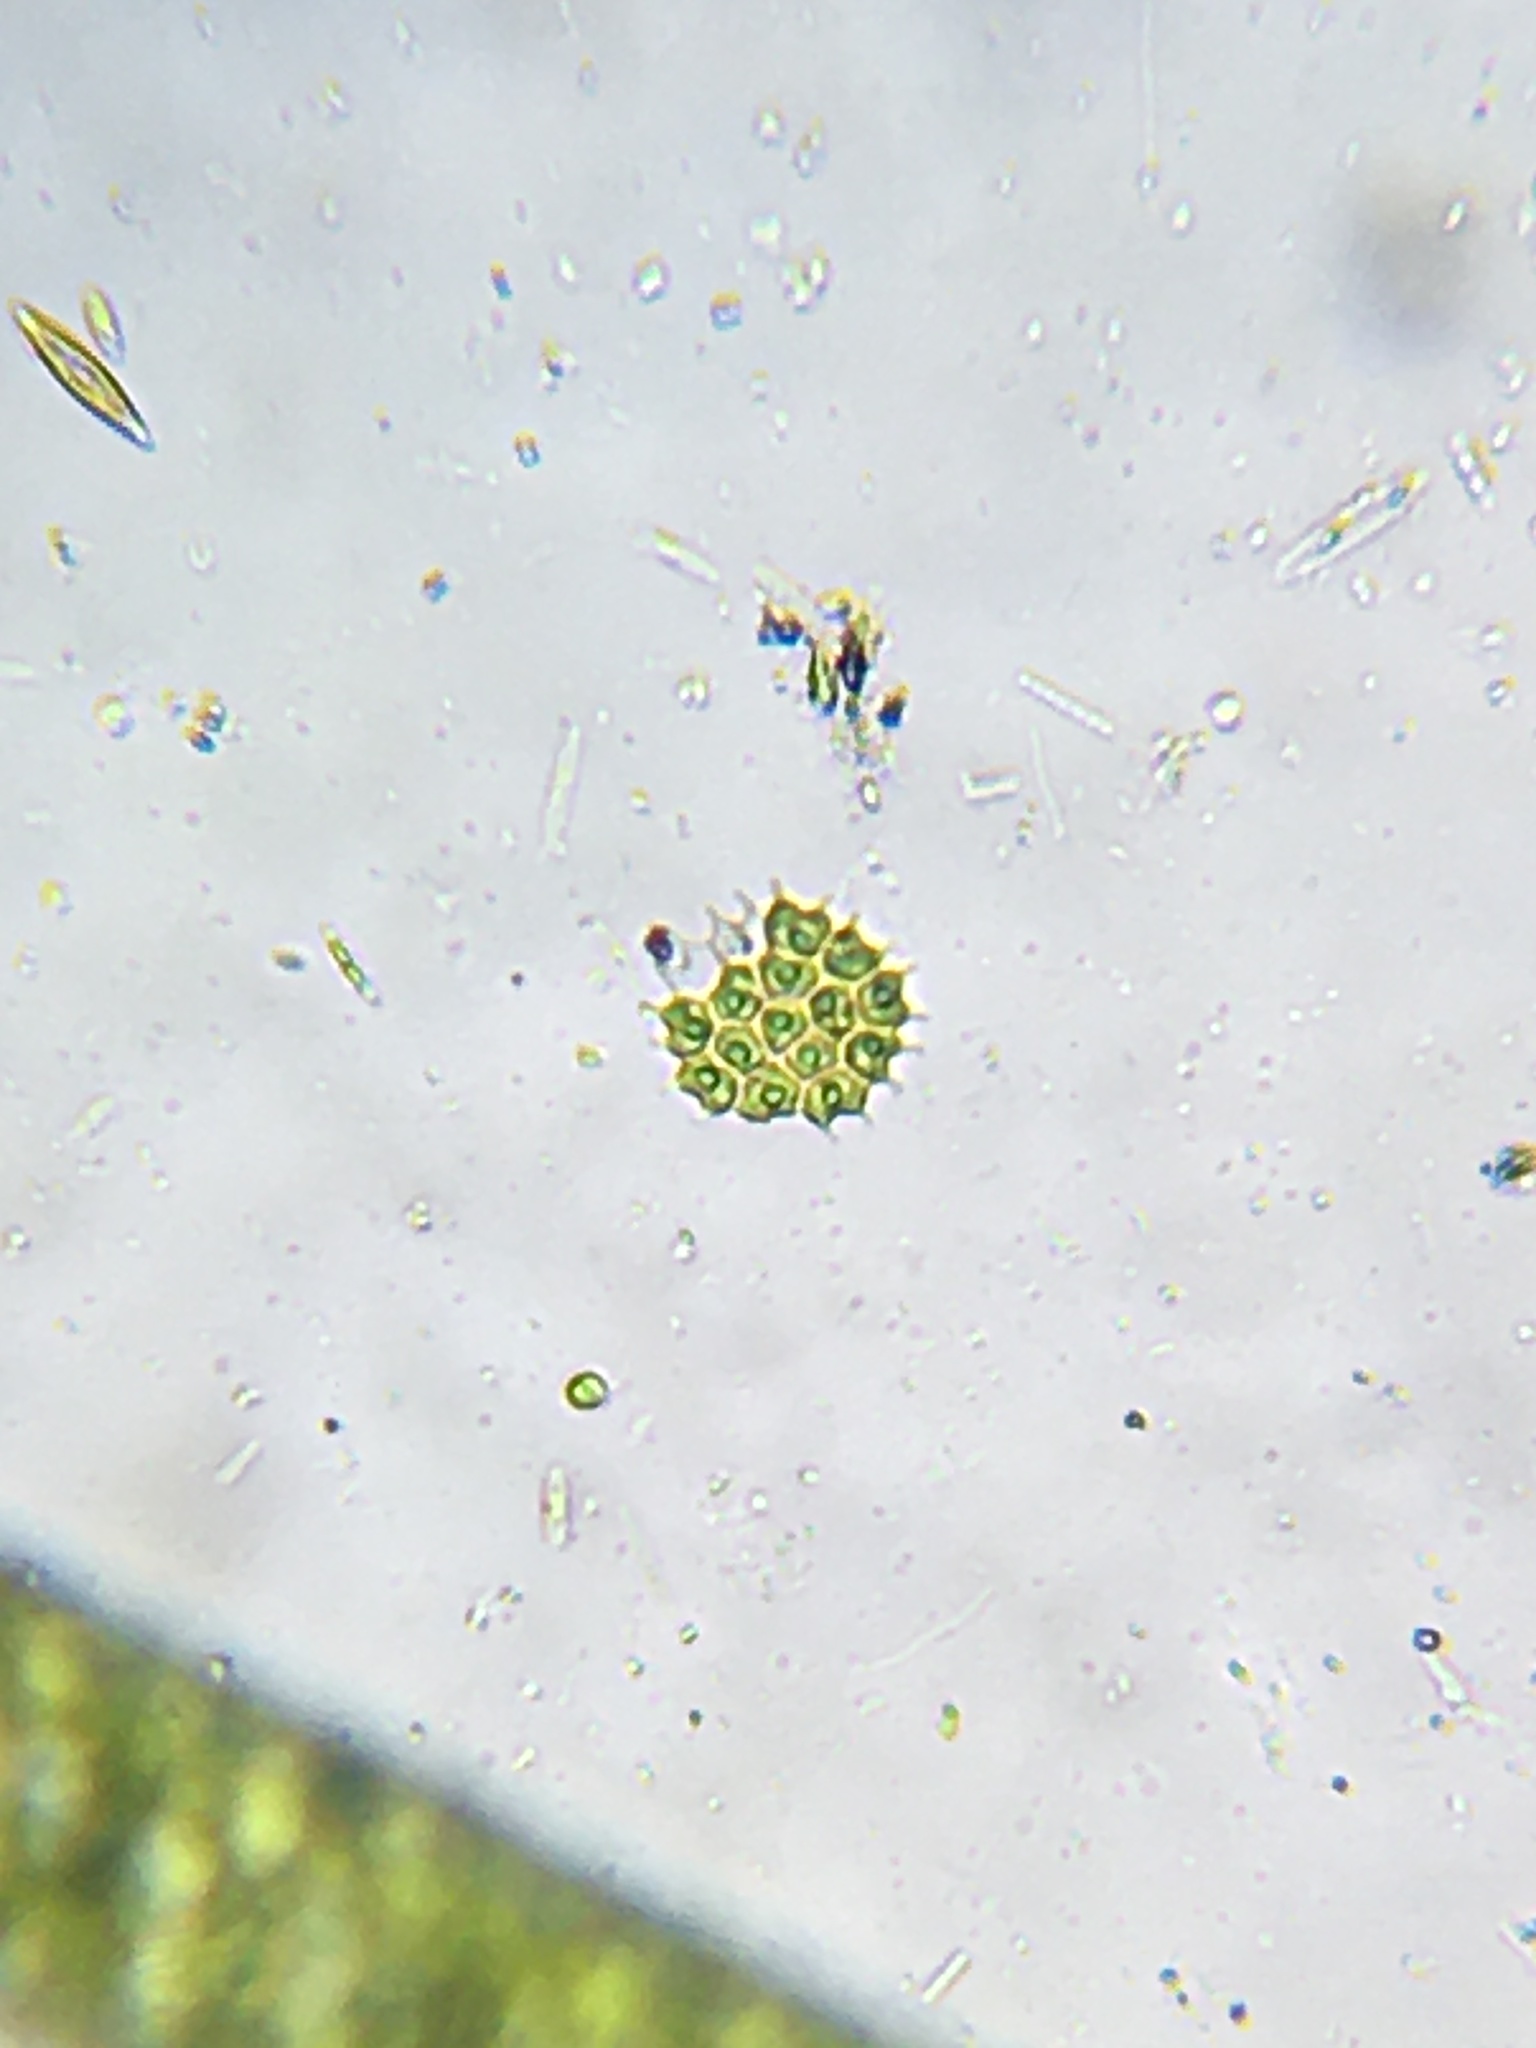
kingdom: Plantae
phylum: Chlorophyta
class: Chlorophyceae
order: Sphaeropleales
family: Hydrodictyaceae
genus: Pseudopediastrum
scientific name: Pseudopediastrum boryanum
